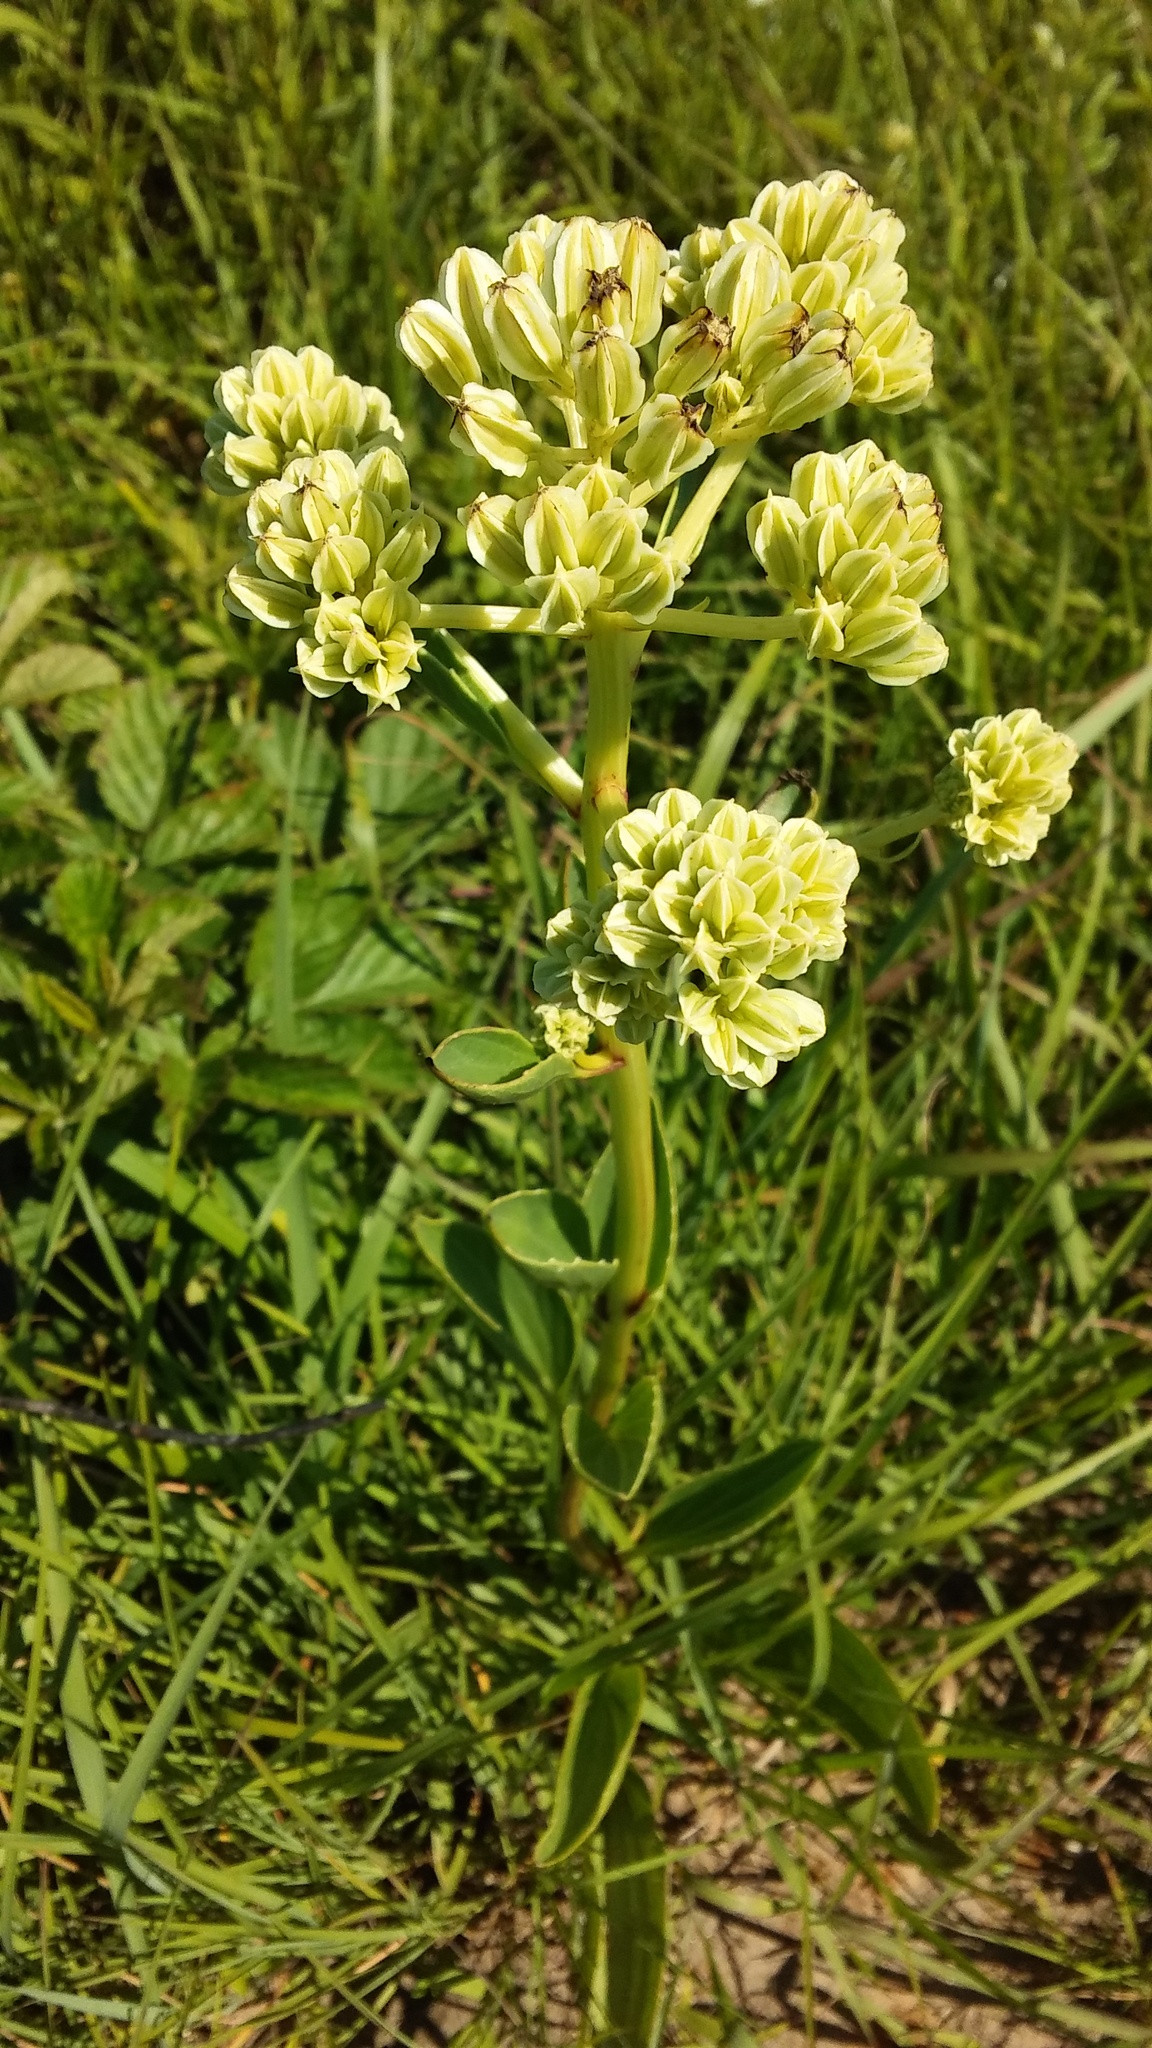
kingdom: Plantae
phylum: Tracheophyta
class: Magnoliopsida
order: Asterales
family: Asteraceae
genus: Arnoglossum
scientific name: Arnoglossum plantagineum
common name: Groove-stemmed indian-plantain
